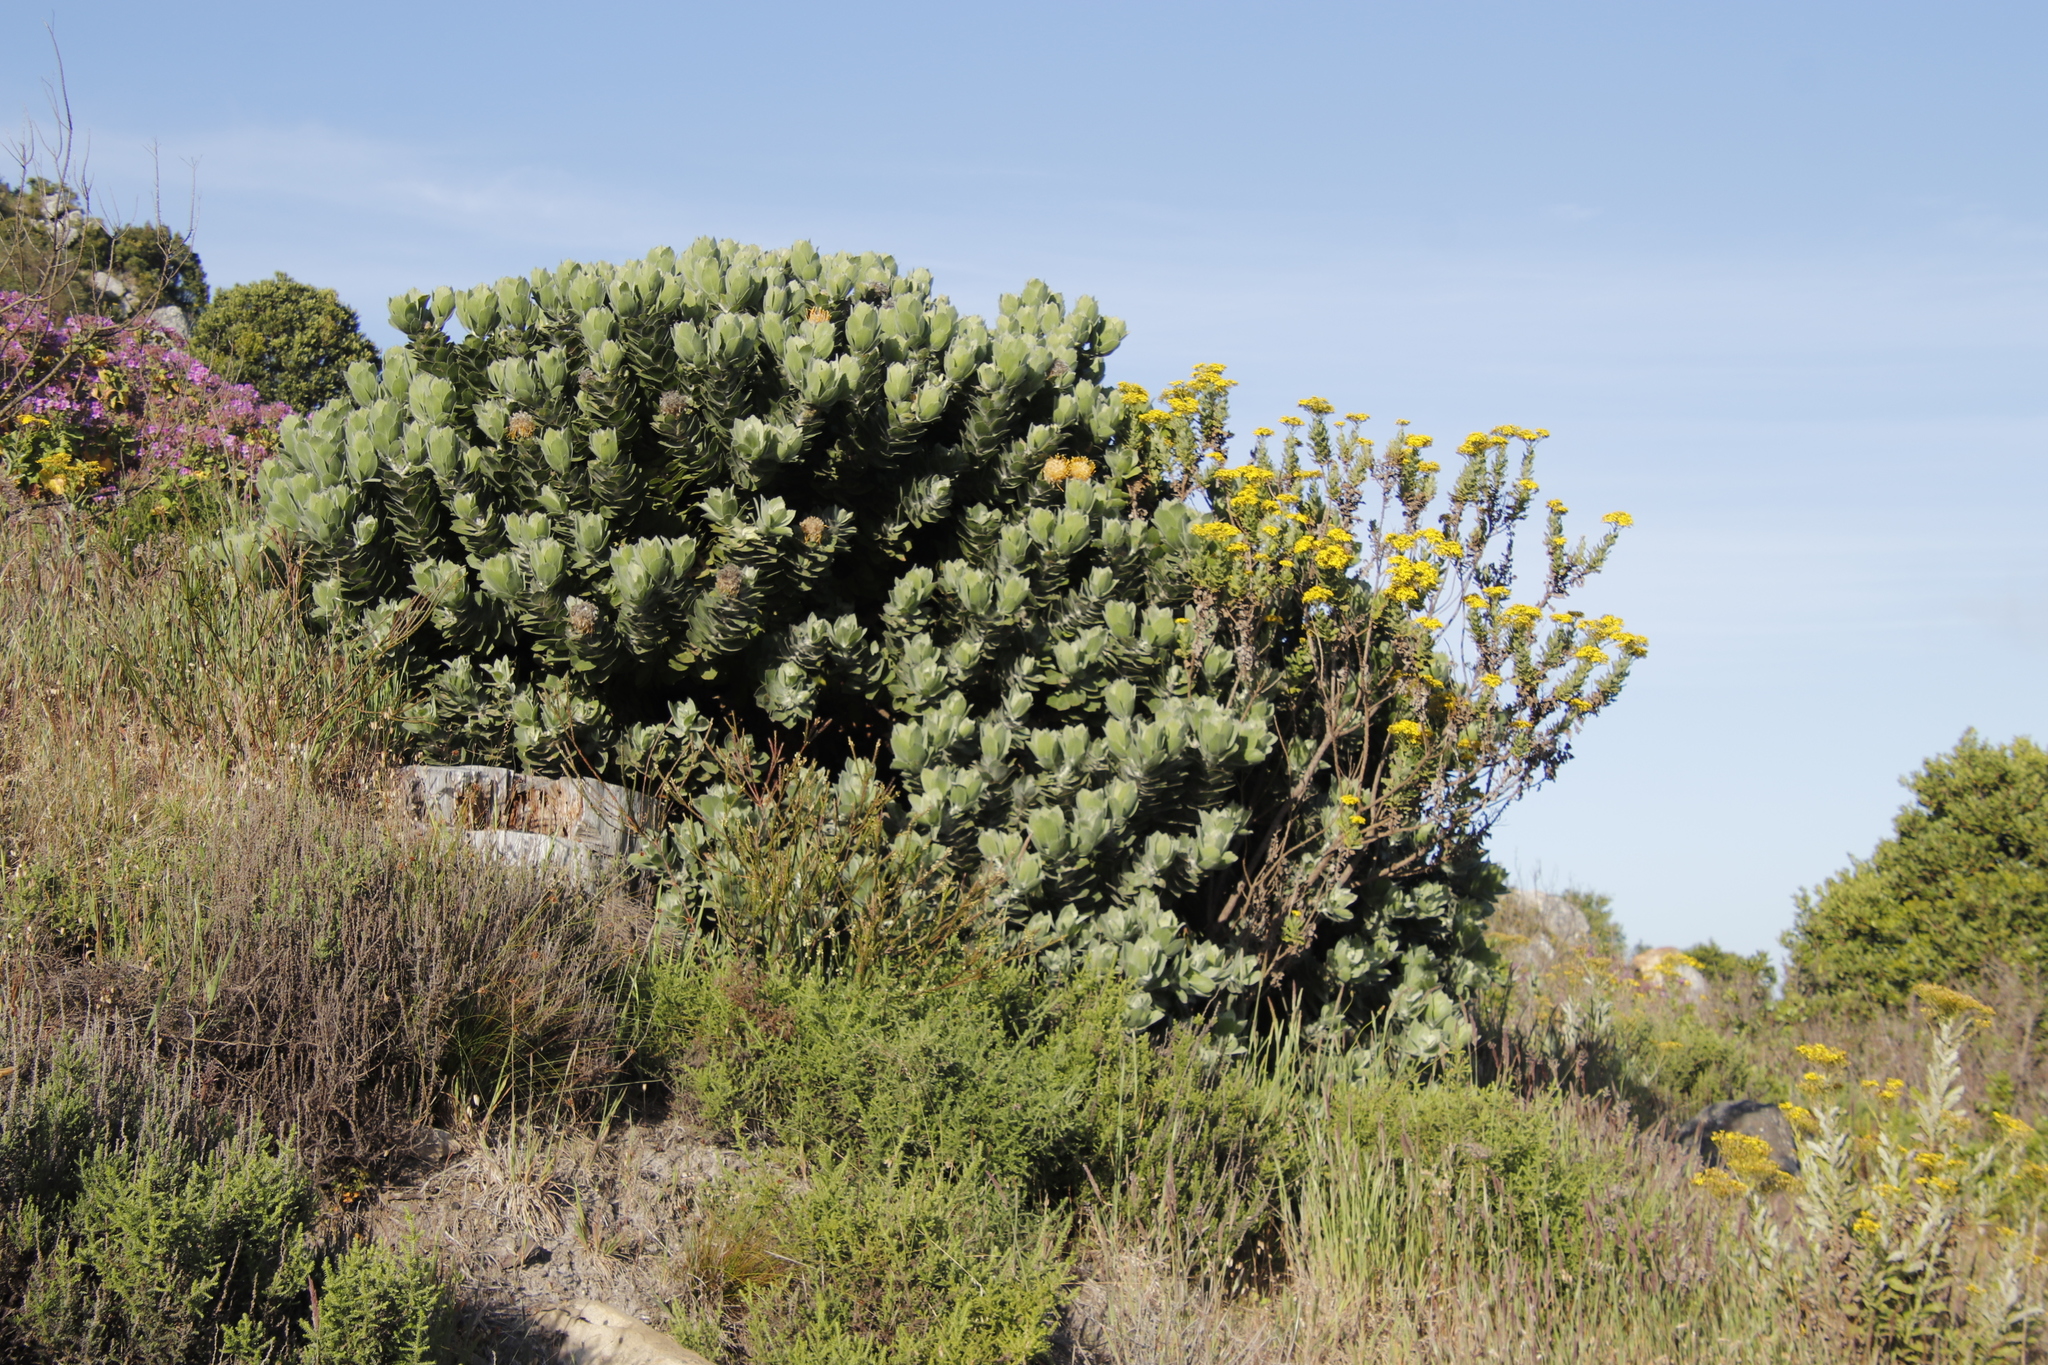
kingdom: Plantae
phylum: Tracheophyta
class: Magnoliopsida
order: Proteales
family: Proteaceae
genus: Leucospermum
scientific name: Leucospermum conocarpodendron
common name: Tree pincushion
